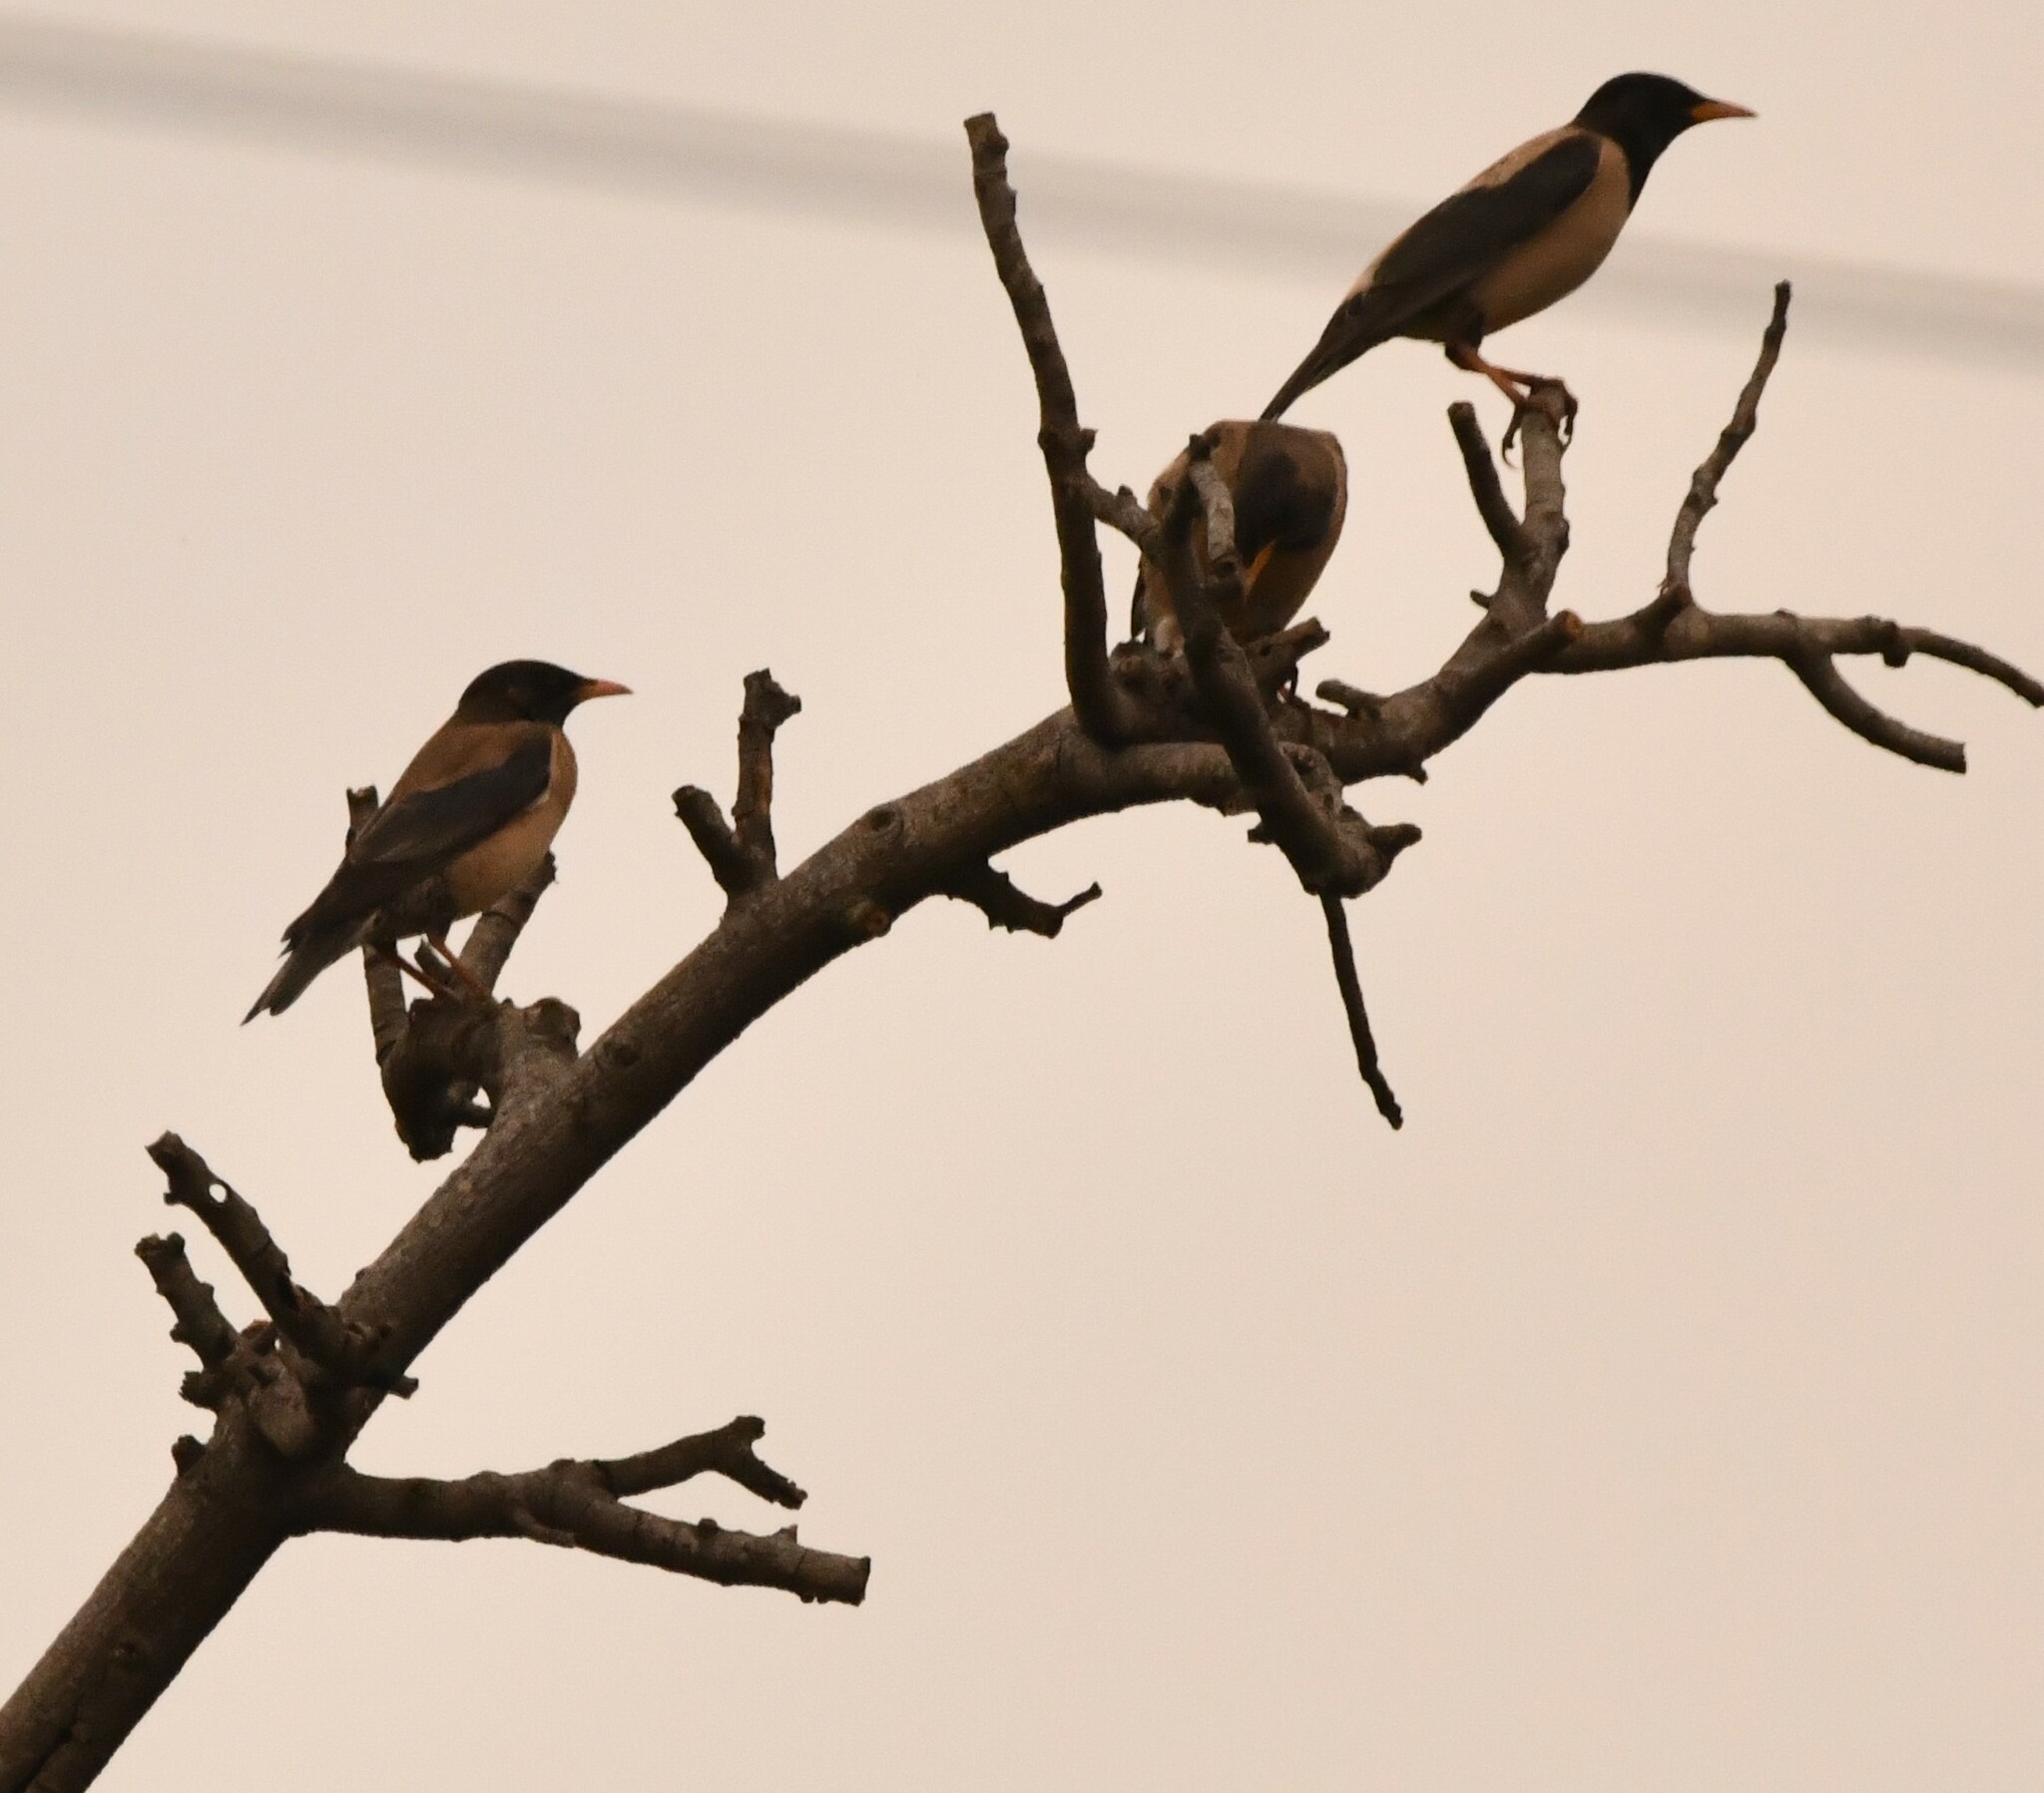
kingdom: Animalia
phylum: Chordata
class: Aves
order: Passeriformes
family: Sturnidae
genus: Pastor
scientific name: Pastor roseus
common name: Rosy starling
